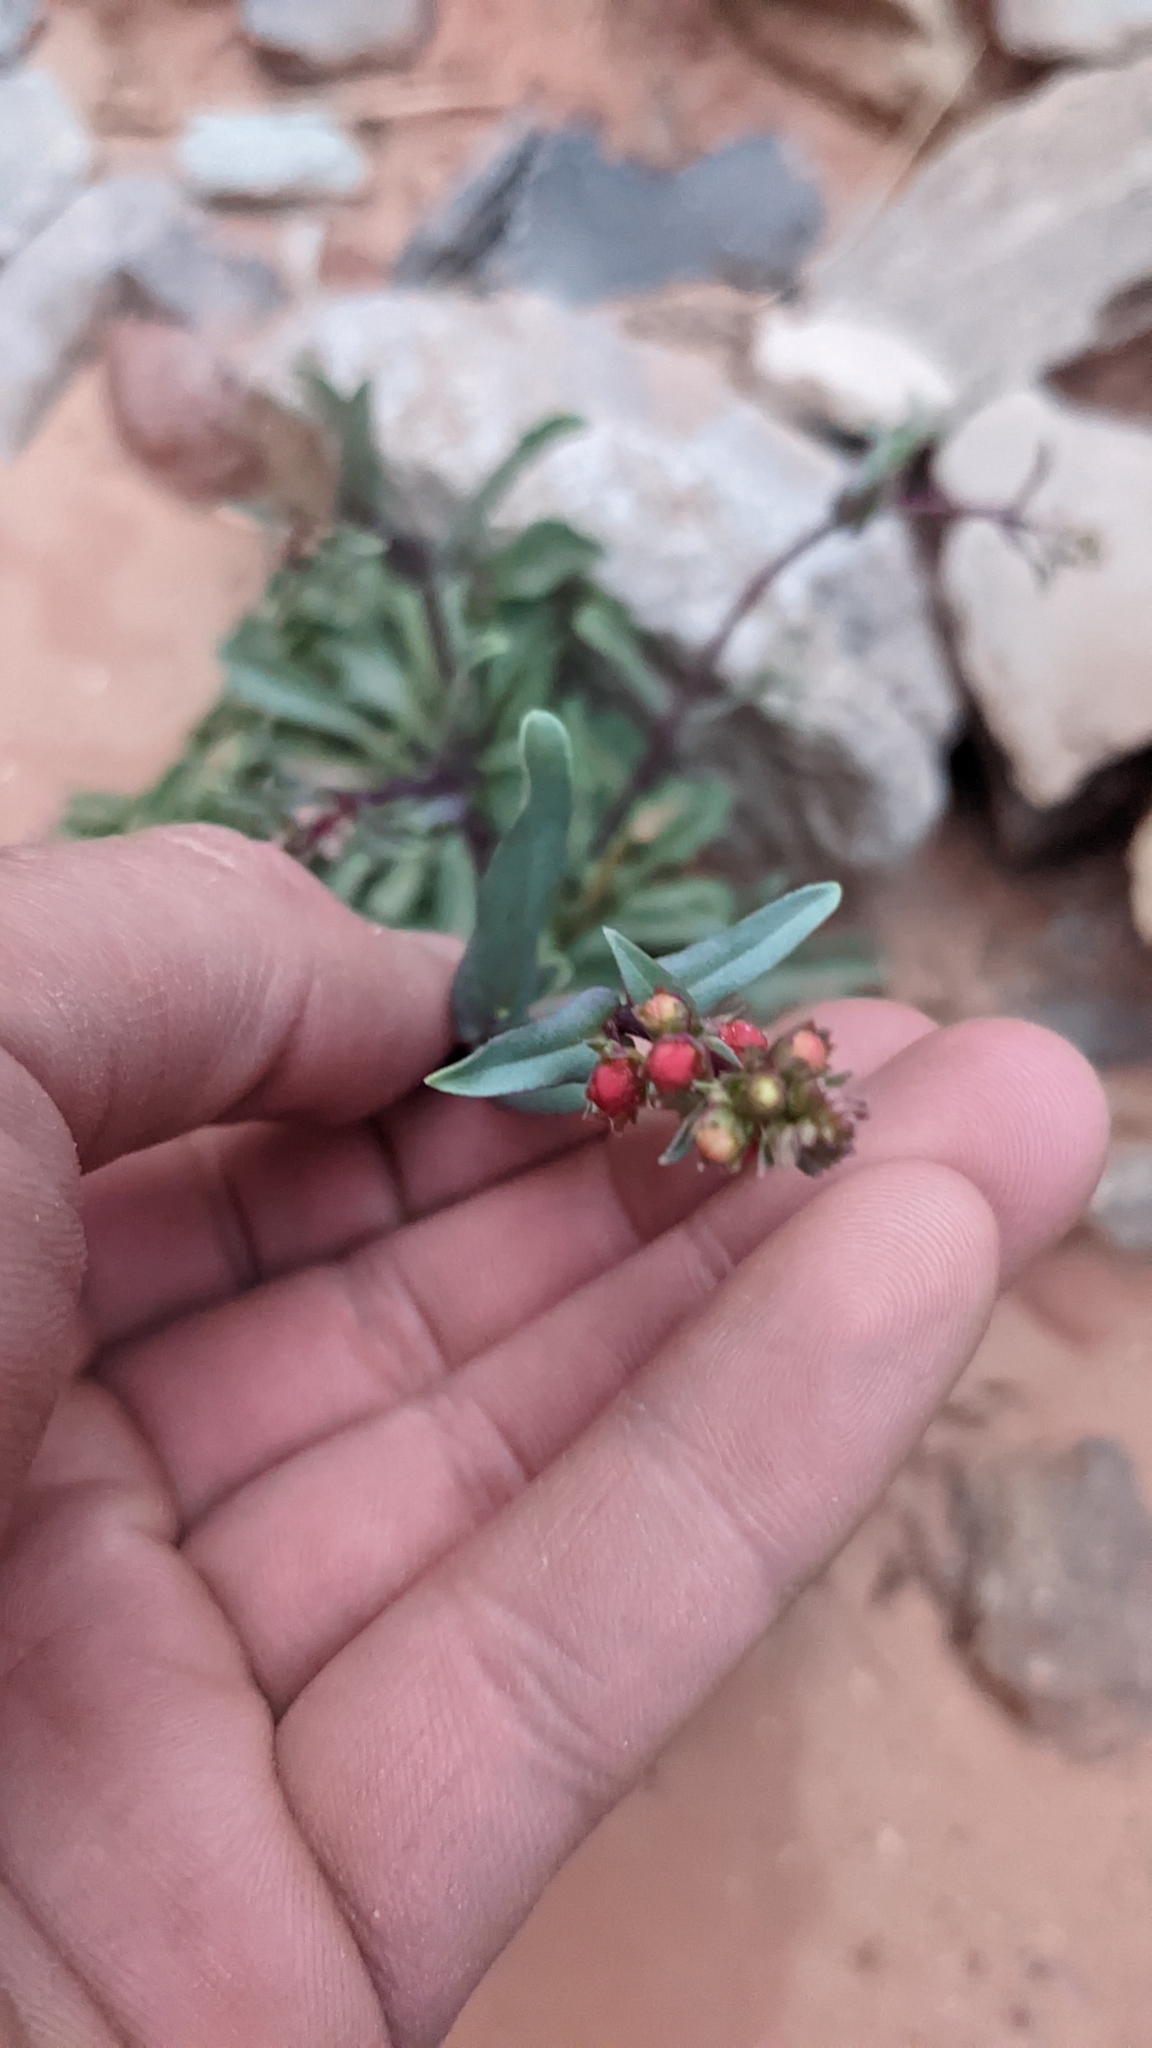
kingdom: Plantae
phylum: Tracheophyta
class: Magnoliopsida
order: Lamiales
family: Plantaginaceae
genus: Penstemon
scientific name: Penstemon utahensis
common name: Utah penstemon
